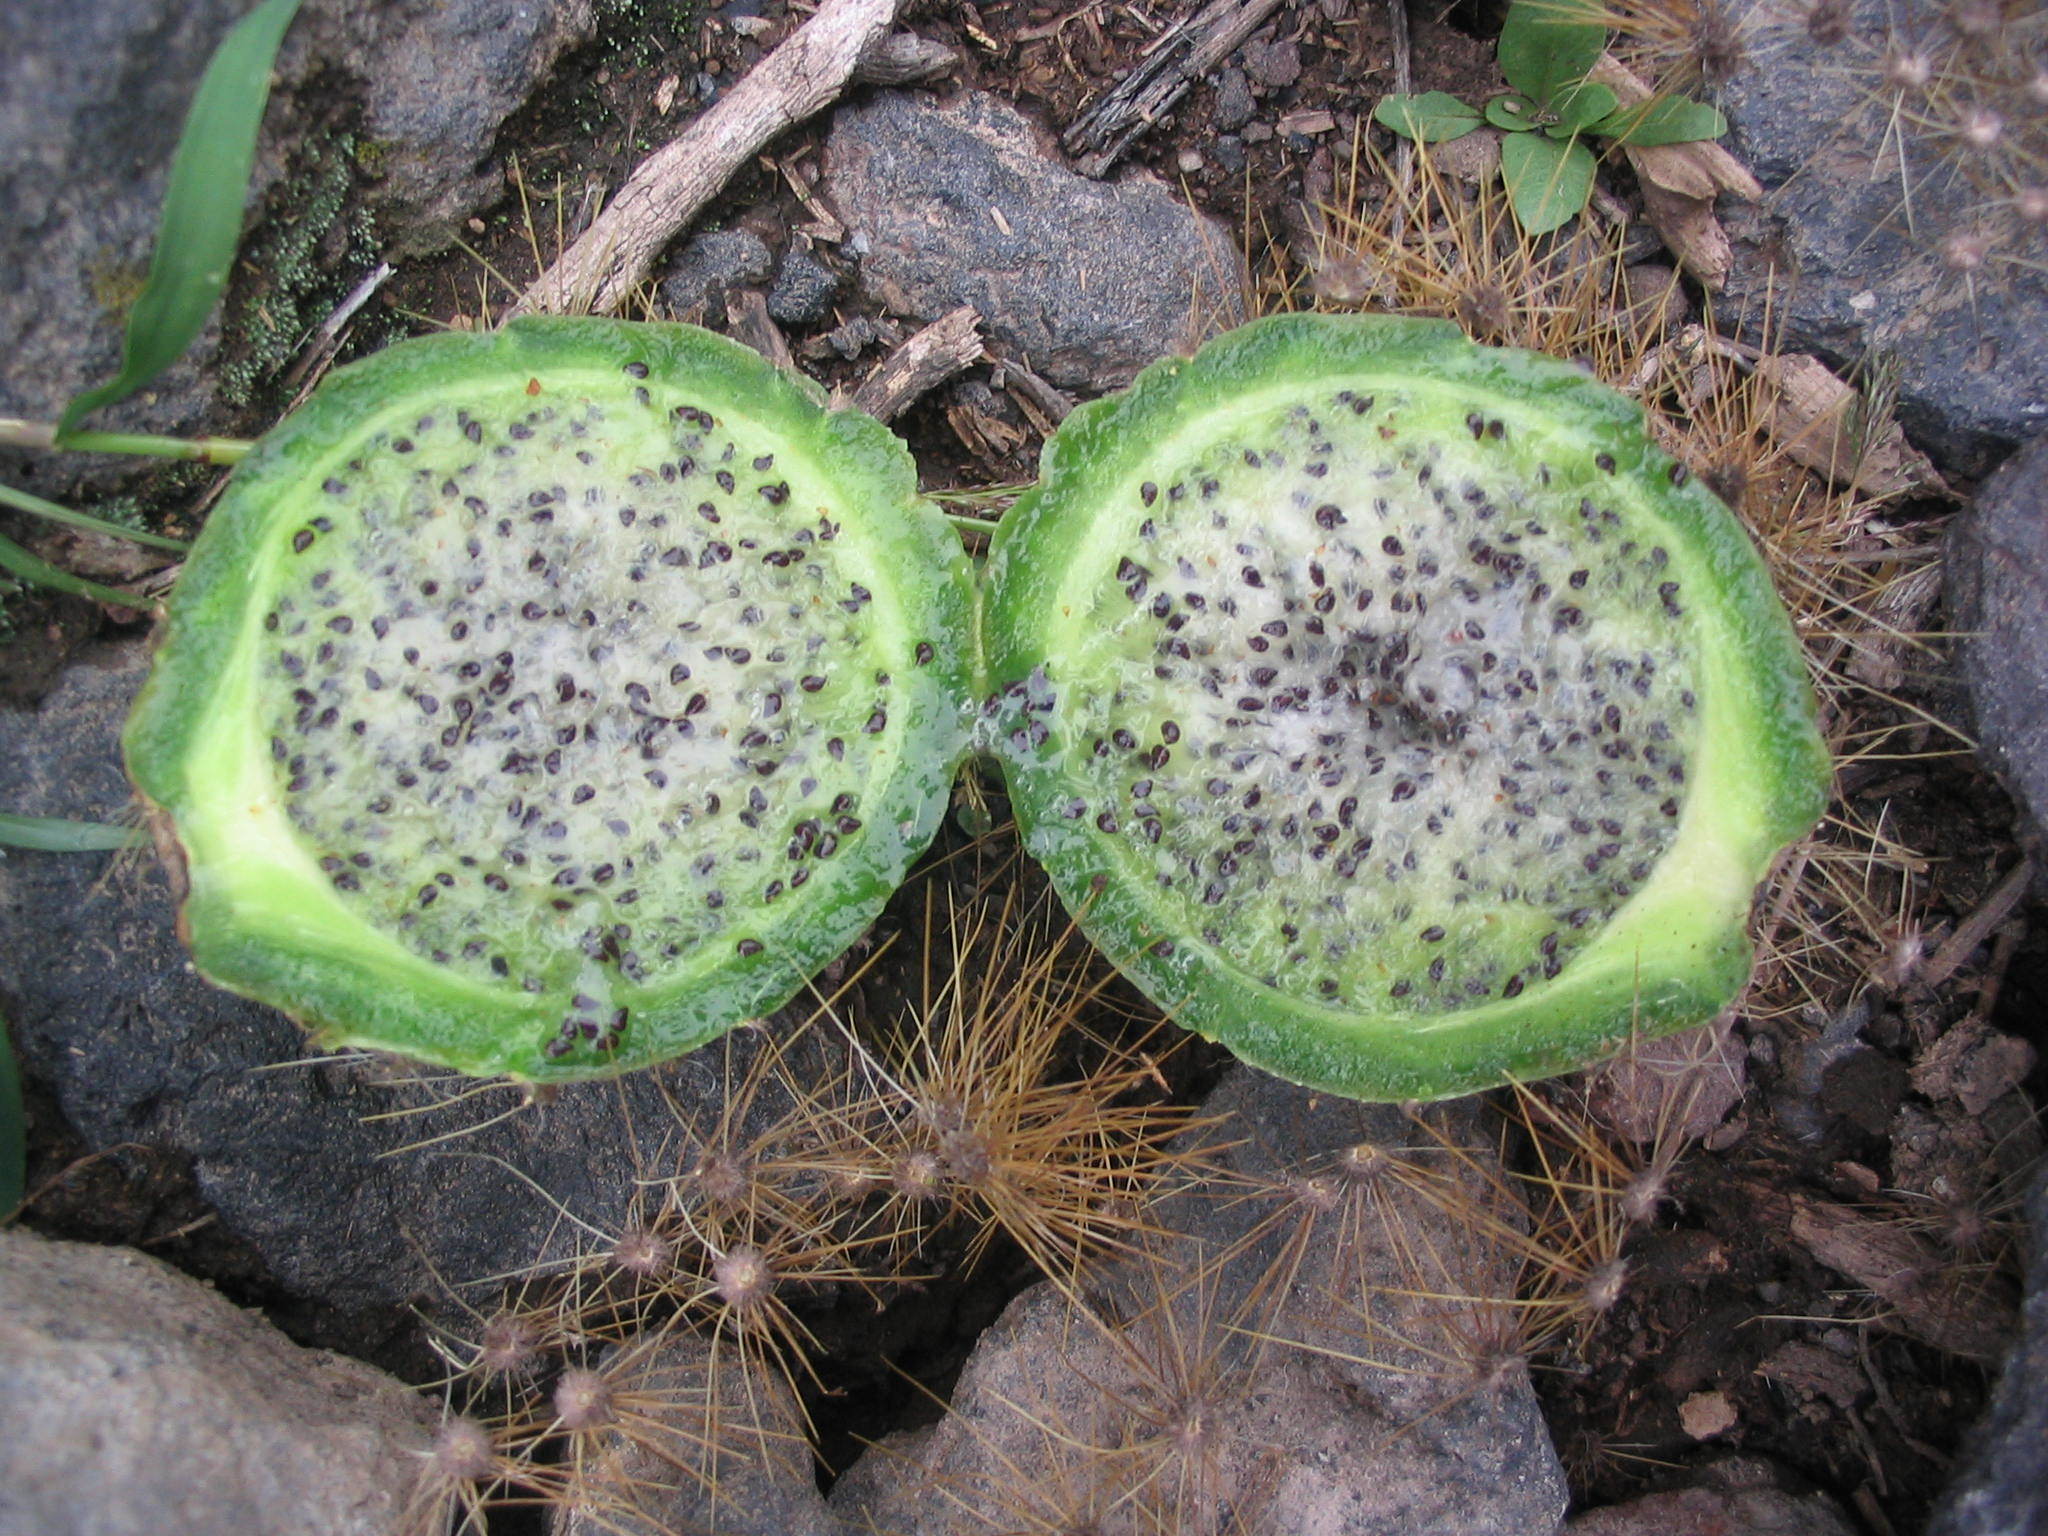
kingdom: Plantae
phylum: Tracheophyta
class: Magnoliopsida
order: Caryophyllales
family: Cactaceae
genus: Corryocactus
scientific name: Corryocactus brevistylus
